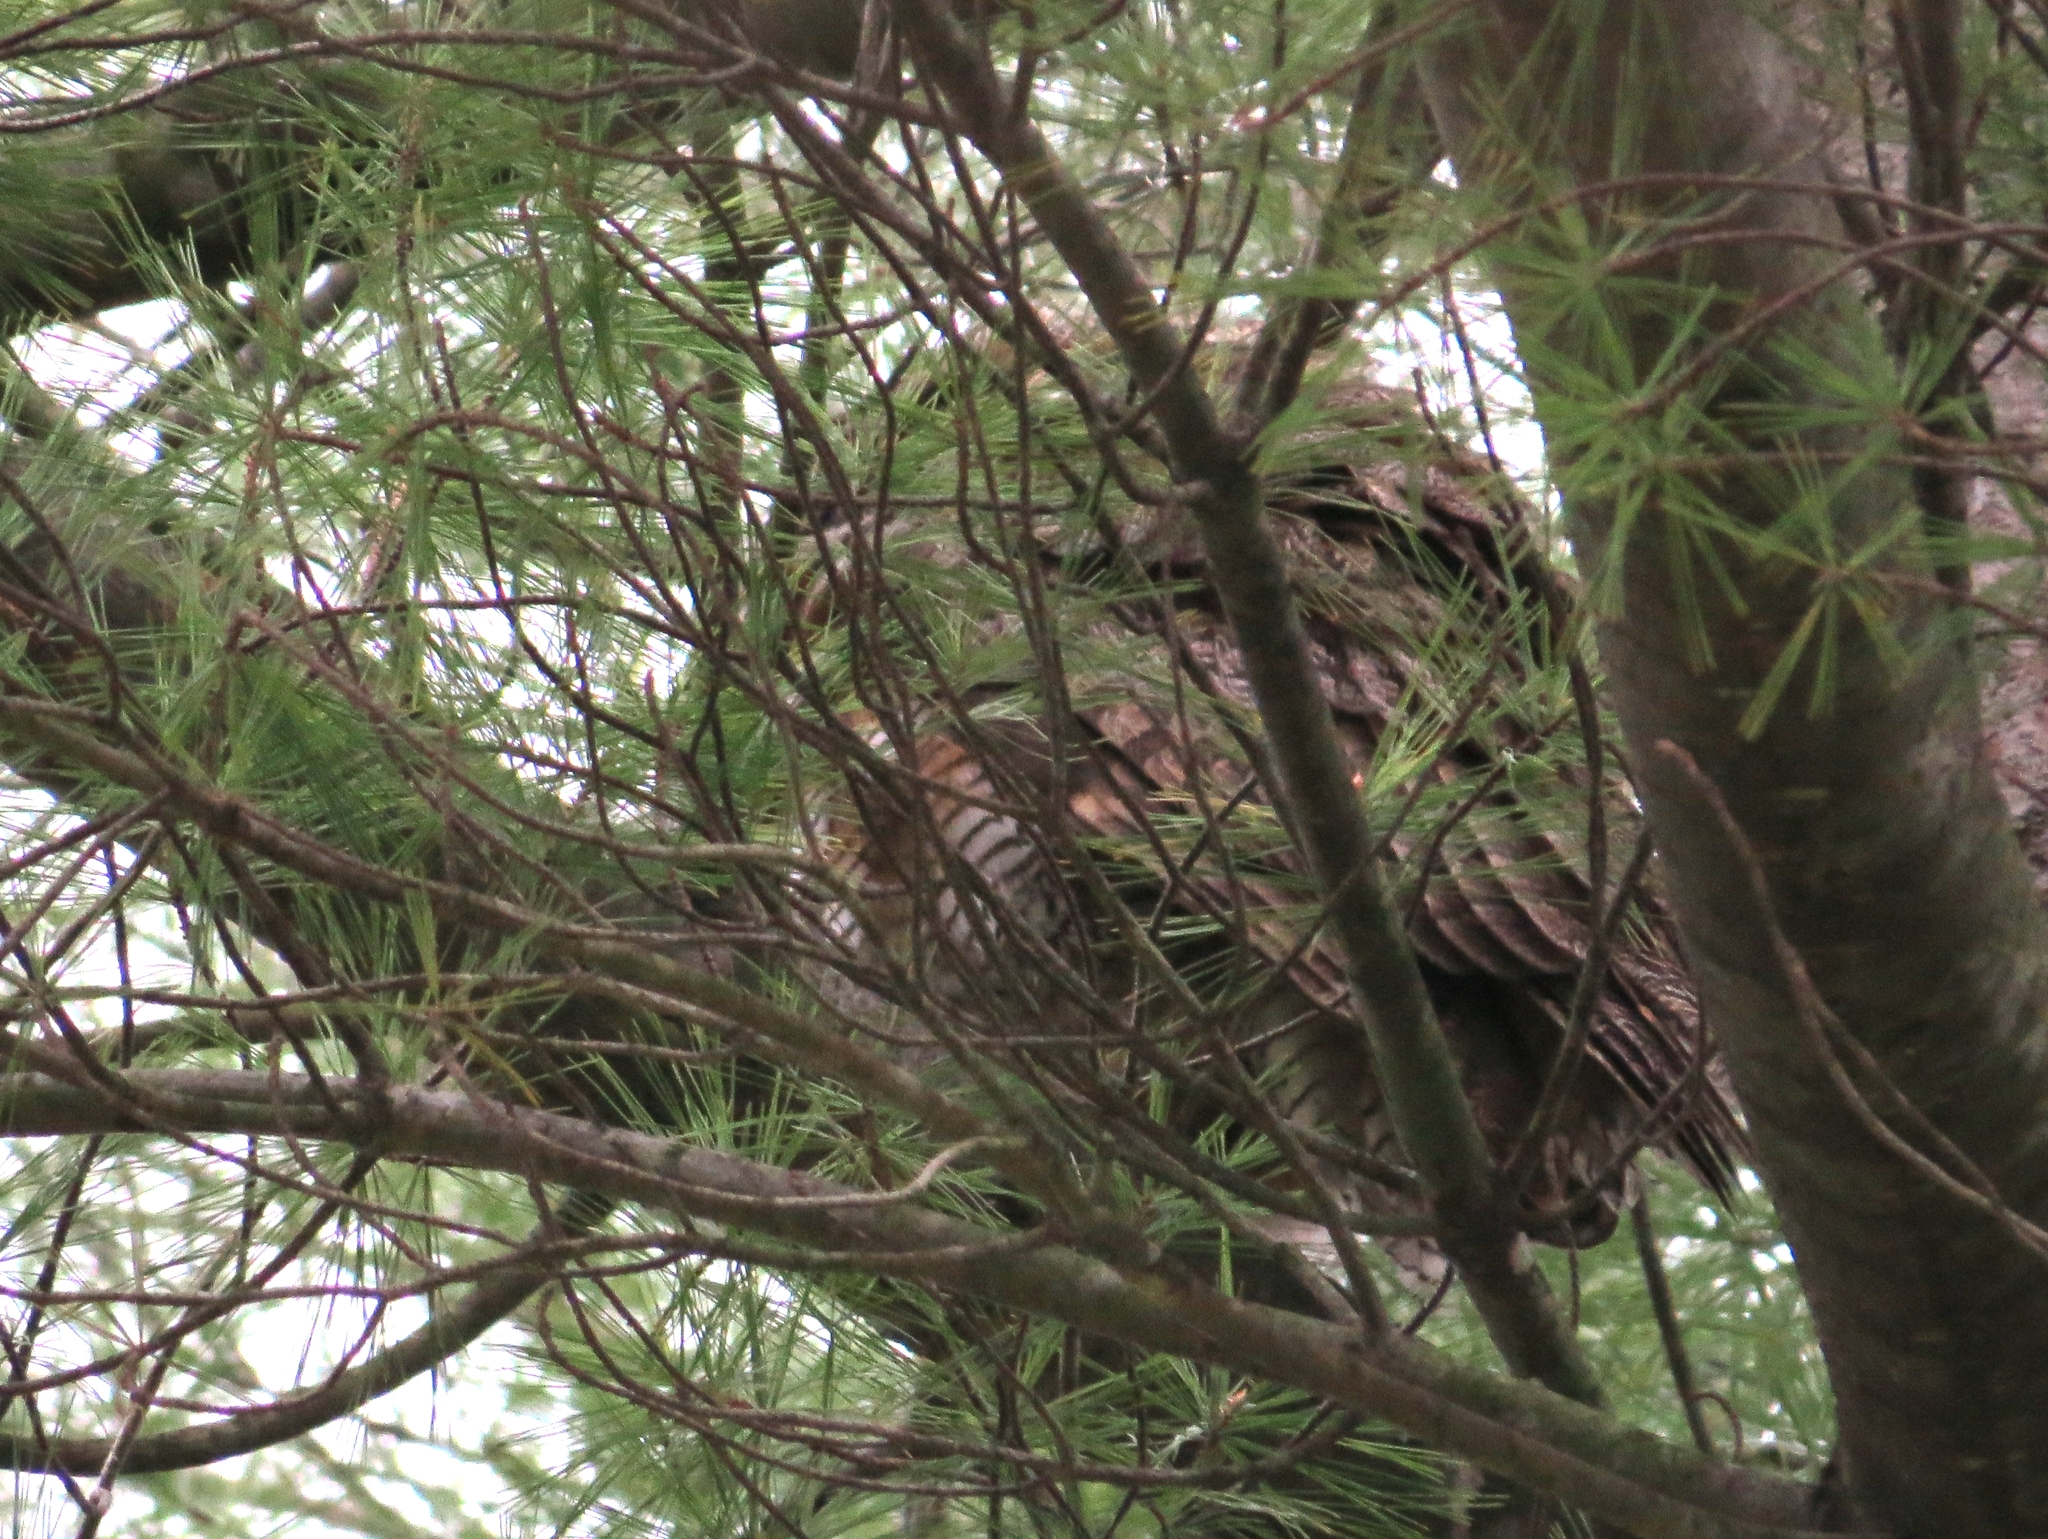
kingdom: Animalia
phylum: Chordata
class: Aves
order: Strigiformes
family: Strigidae
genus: Bubo
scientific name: Bubo virginianus
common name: Great horned owl
